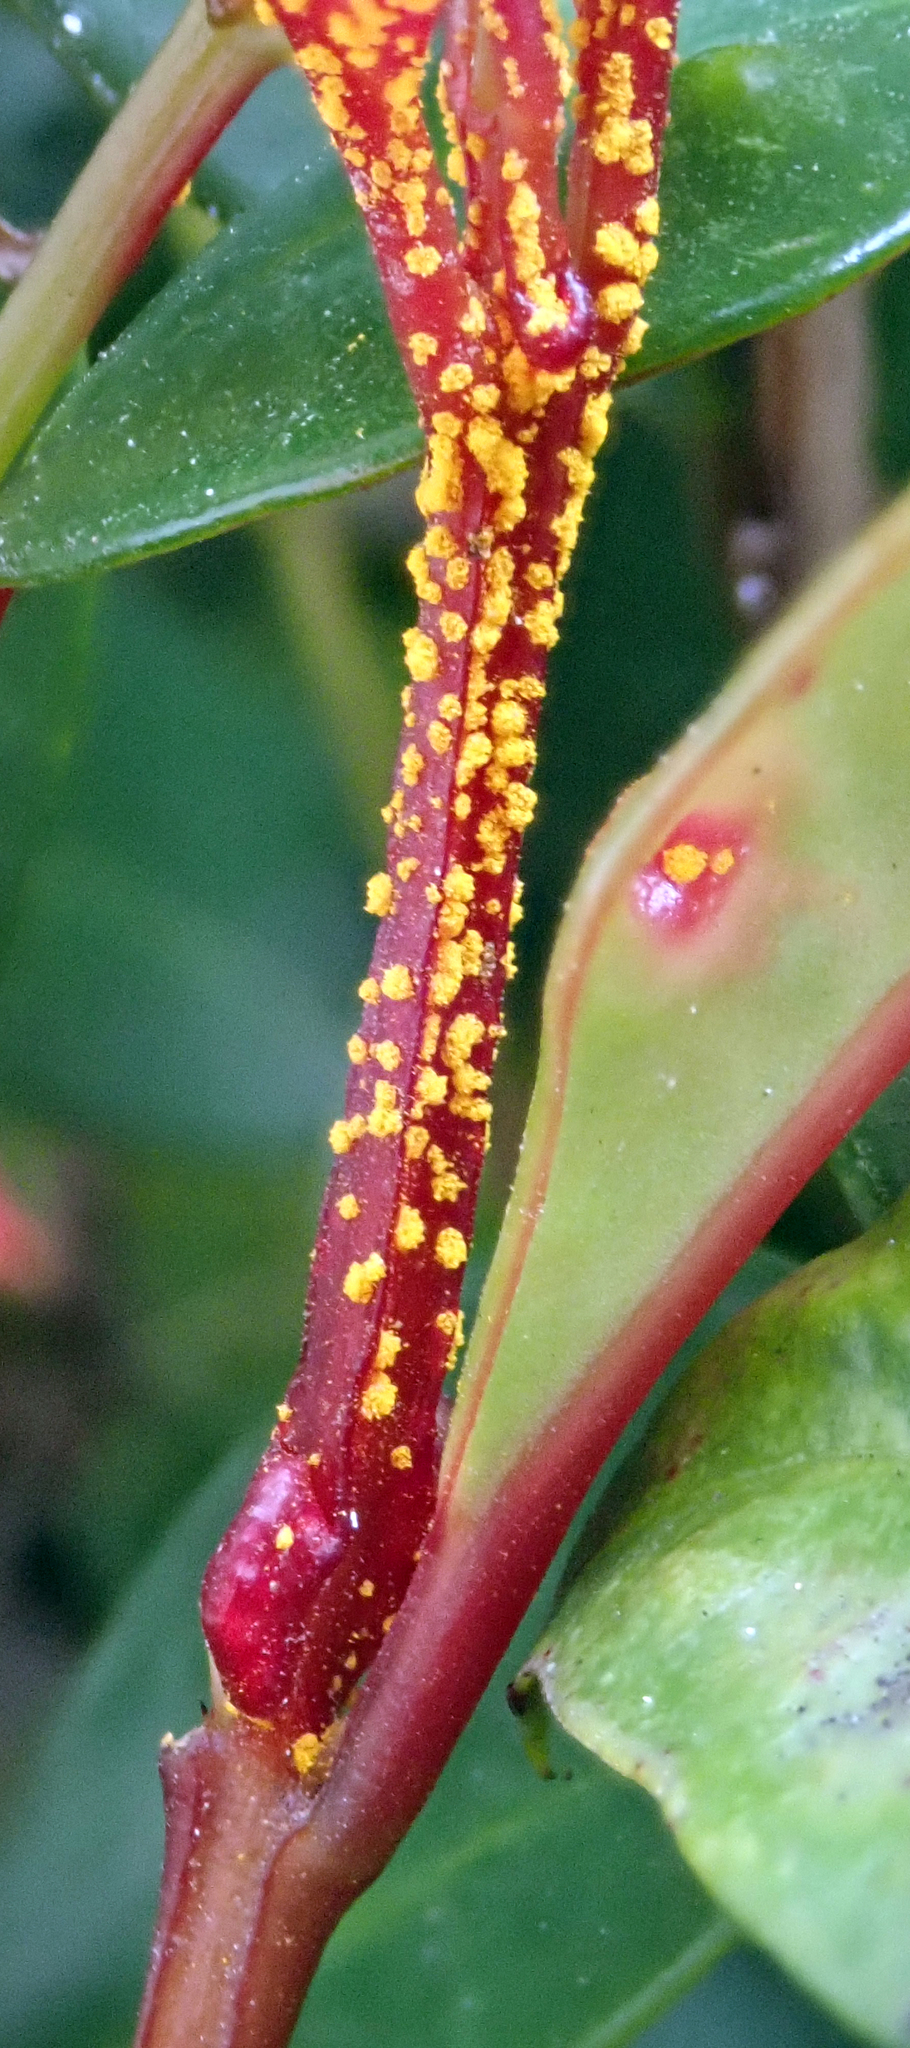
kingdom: Fungi
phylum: Basidiomycota
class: Pucciniomycetes
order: Pucciniales
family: Sphaerophragmiaceae
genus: Austropuccinia
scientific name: Austropuccinia psidii
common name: Myrtle rust
